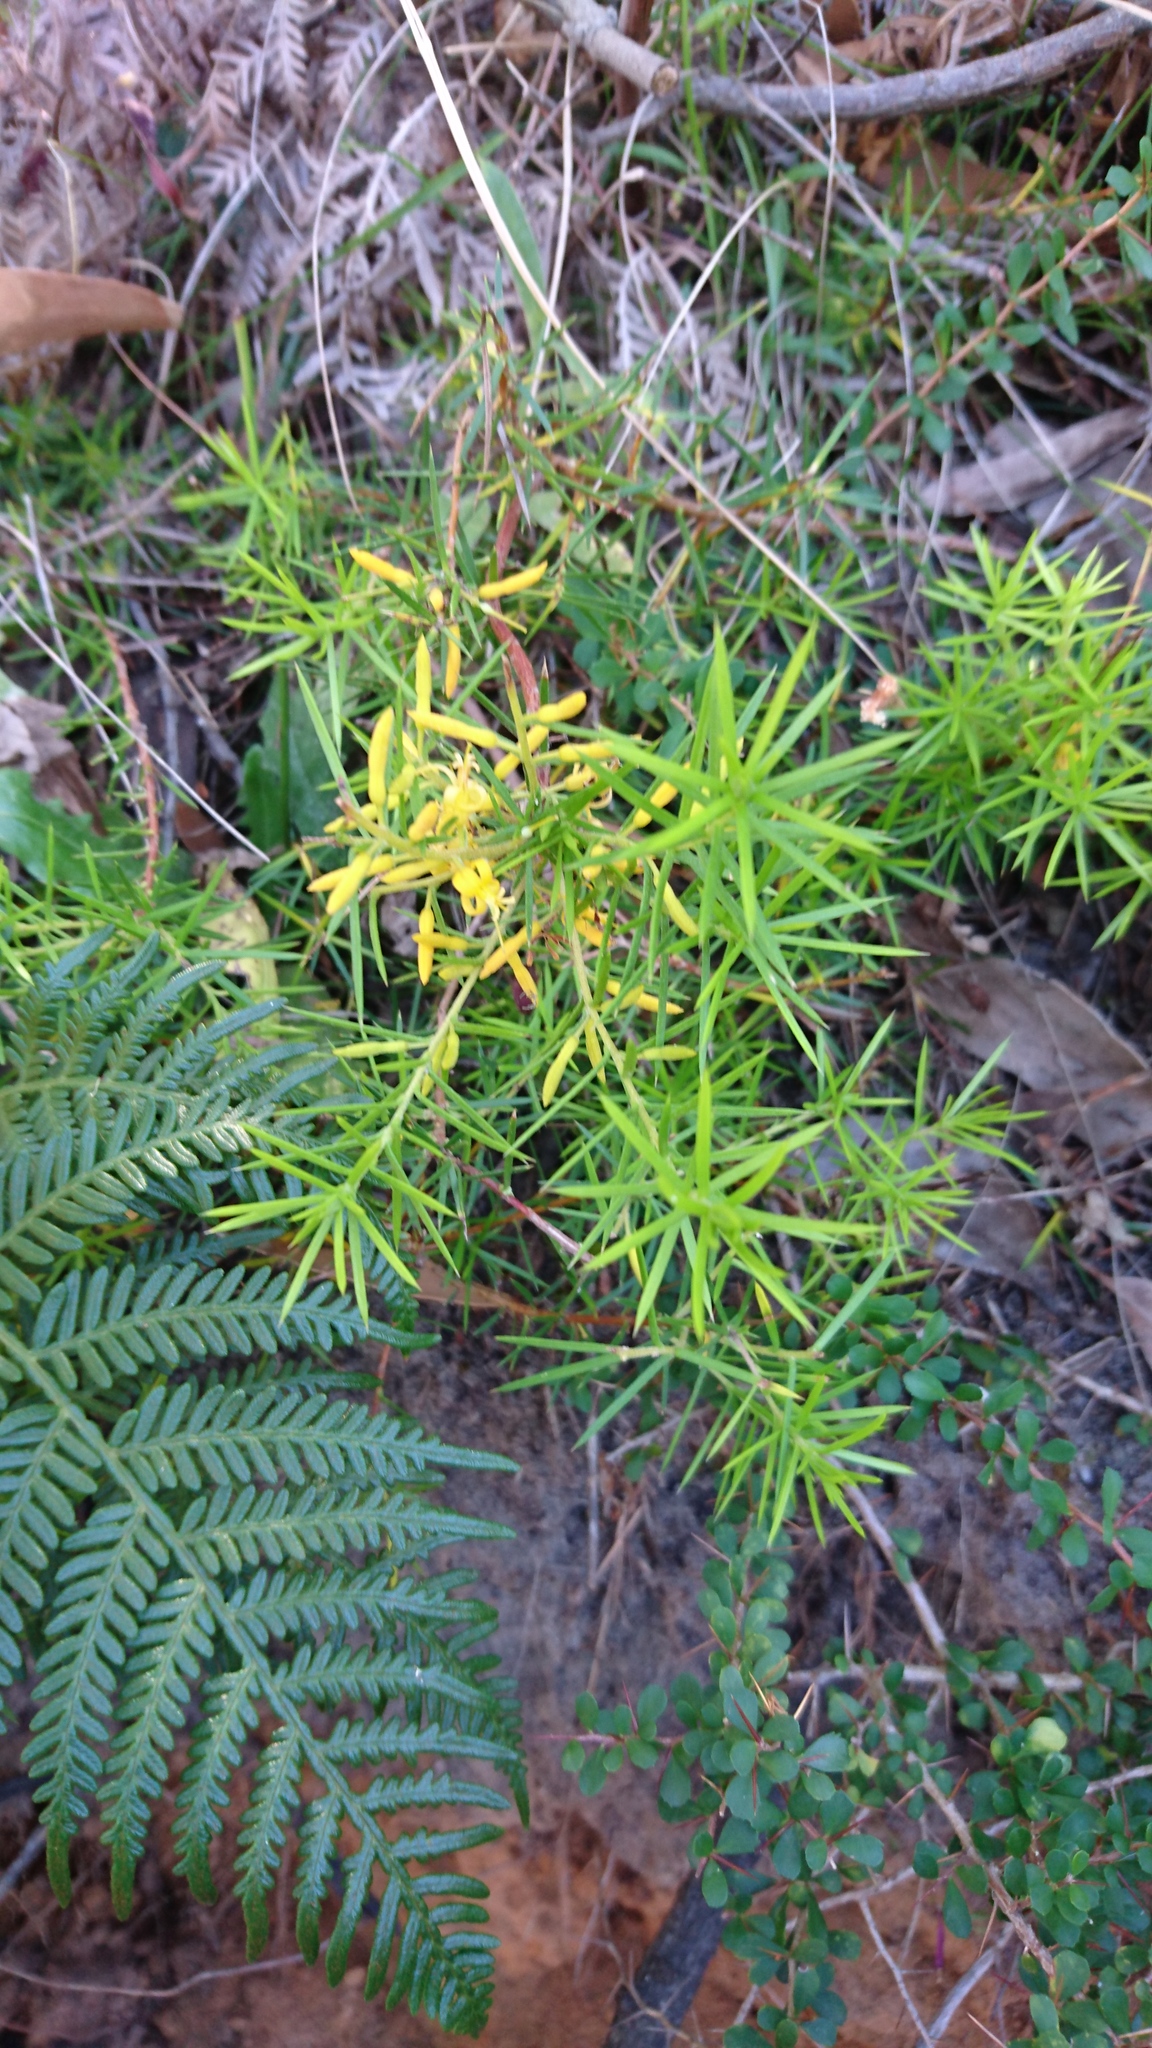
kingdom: Plantae
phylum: Tracheophyta
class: Magnoliopsida
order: Proteales
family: Proteaceae
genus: Persoonia
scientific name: Persoonia juniperina
